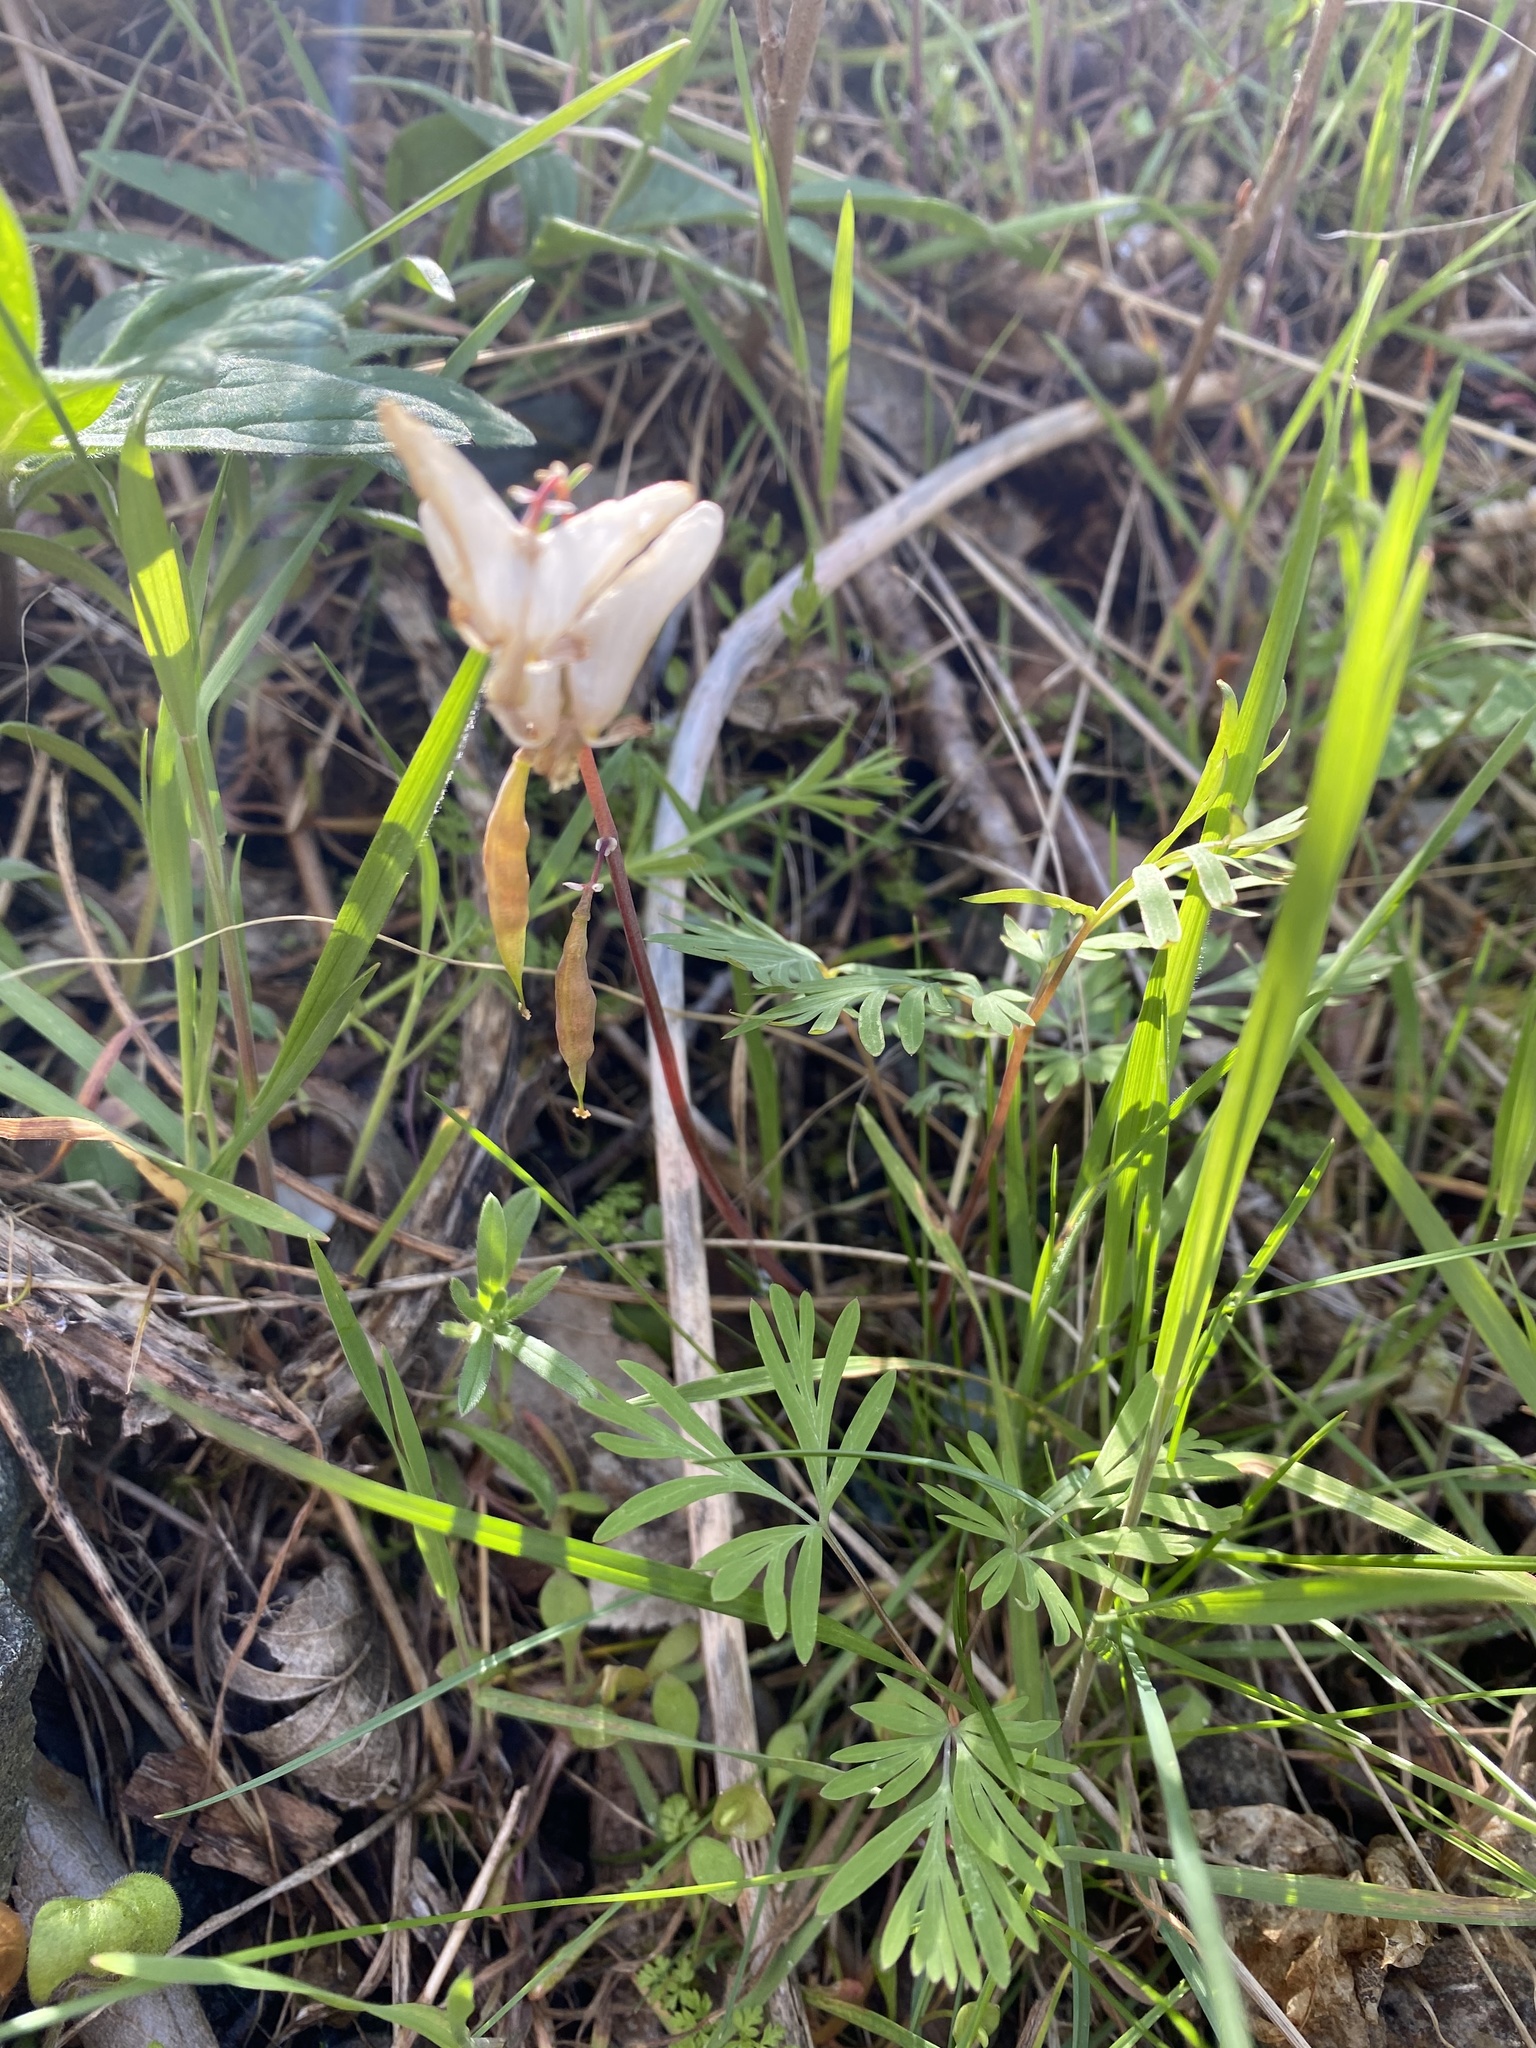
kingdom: Plantae
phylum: Tracheophyta
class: Magnoliopsida
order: Ranunculales
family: Papaveraceae
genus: Dicentra
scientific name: Dicentra cucullaria
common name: Dutchman's breeches
